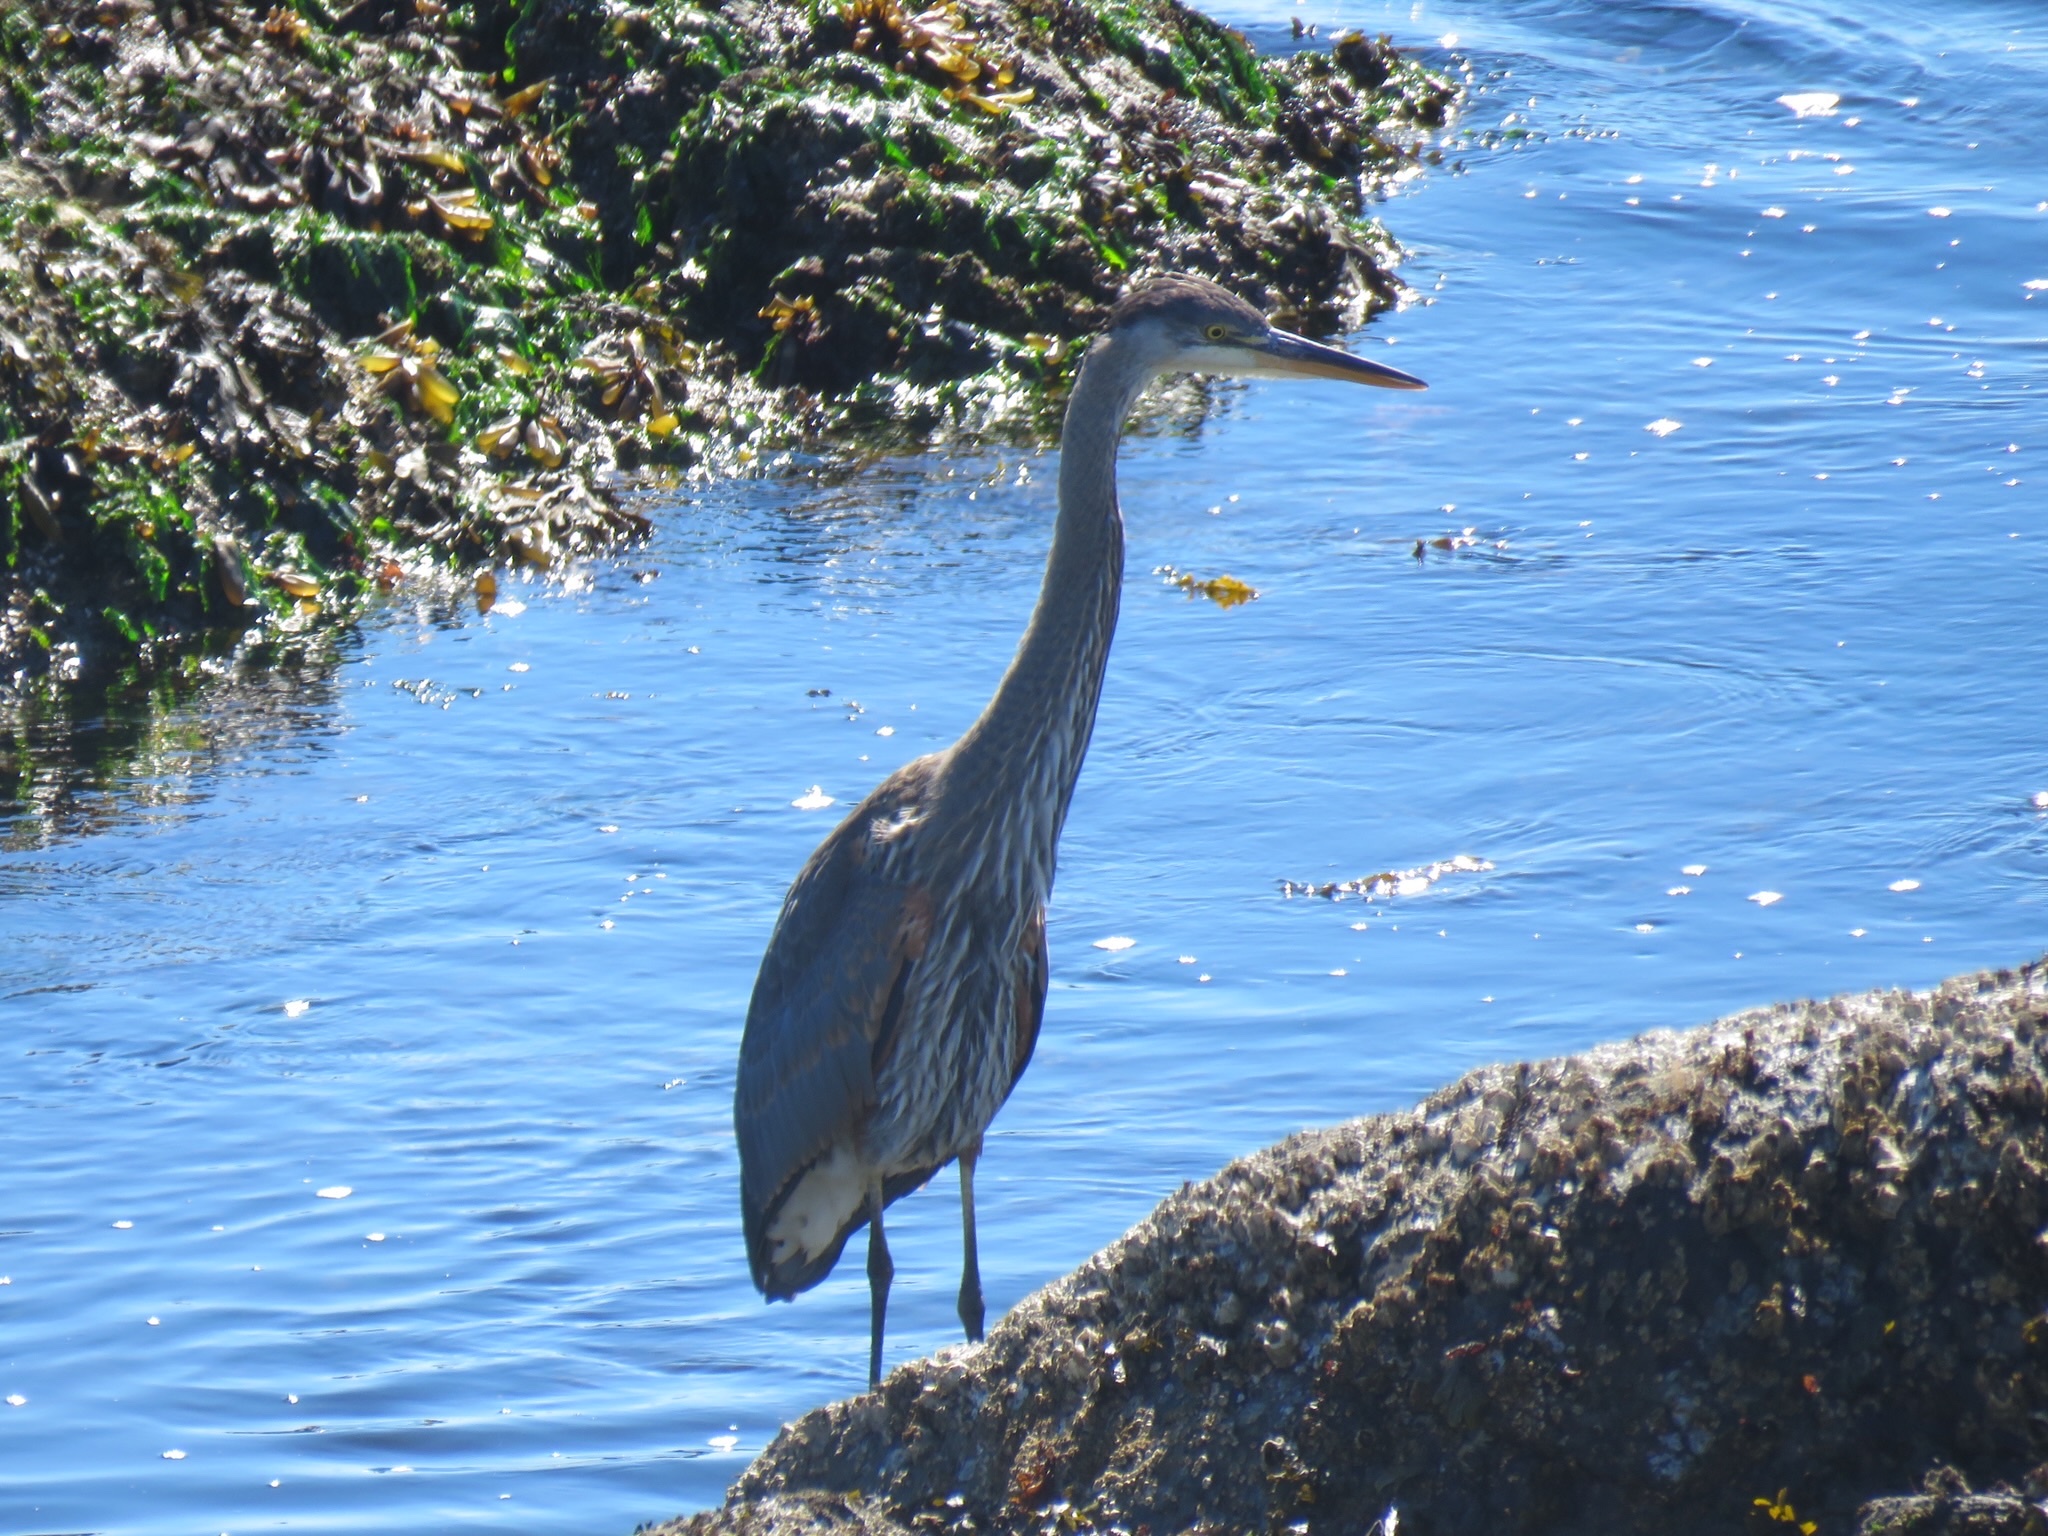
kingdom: Animalia
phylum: Chordata
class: Aves
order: Pelecaniformes
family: Ardeidae
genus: Ardea
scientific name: Ardea herodias
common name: Great blue heron
